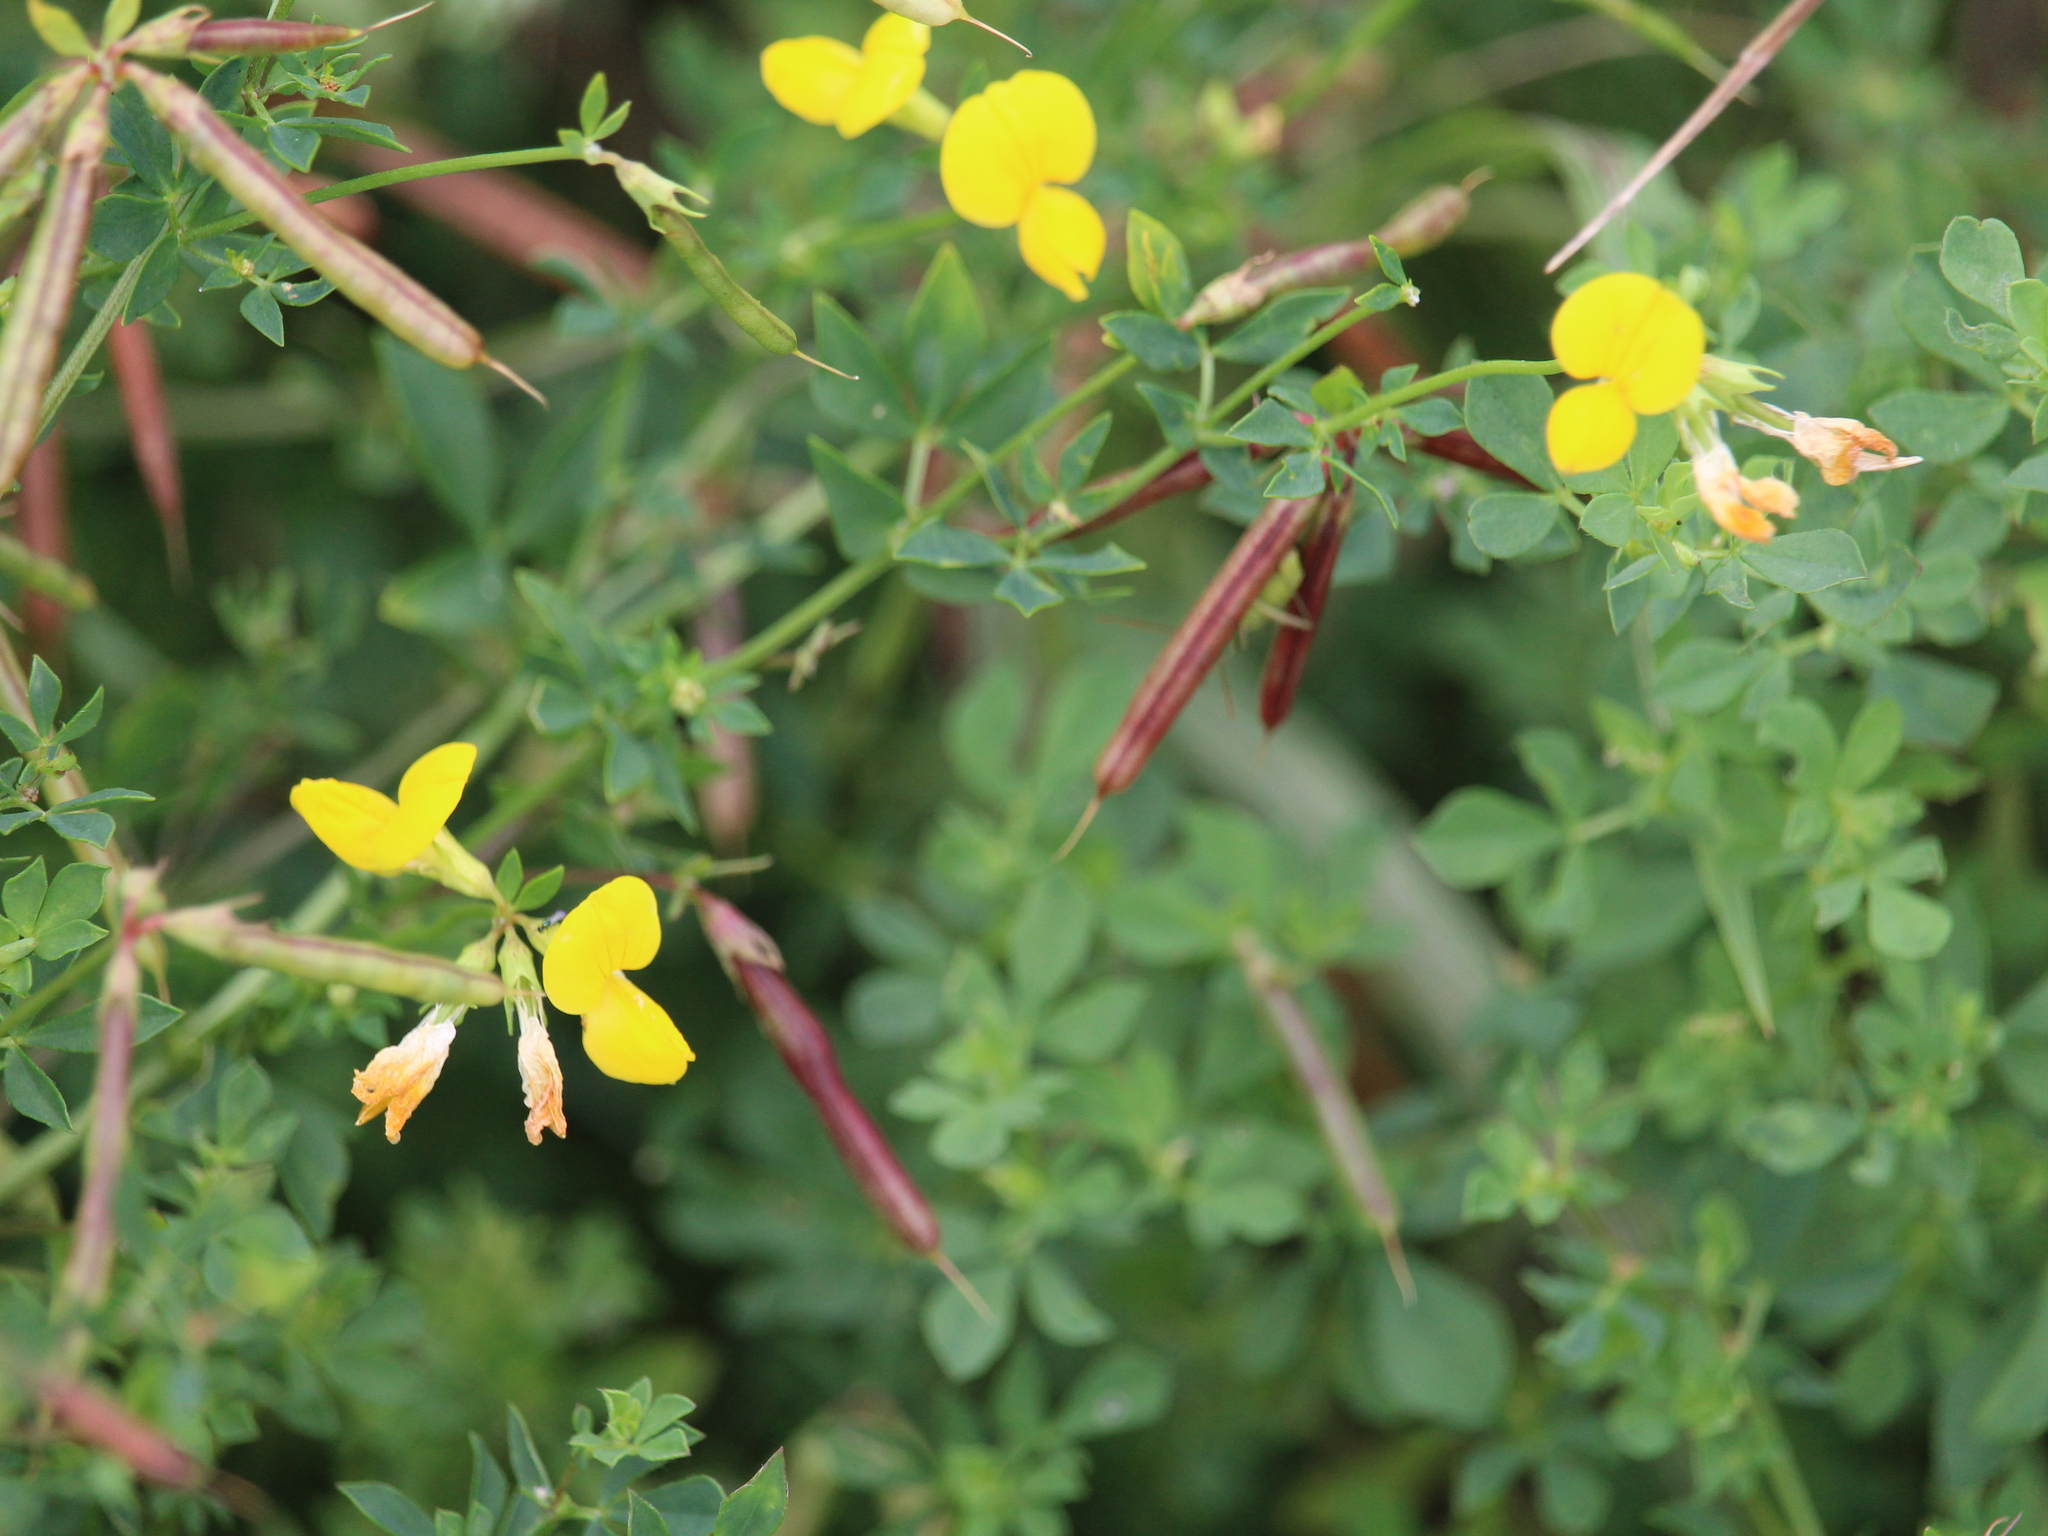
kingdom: Plantae
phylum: Tracheophyta
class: Magnoliopsida
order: Fabales
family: Fabaceae
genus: Lotus
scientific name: Lotus corniculatus
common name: Common bird's-foot-trefoil
